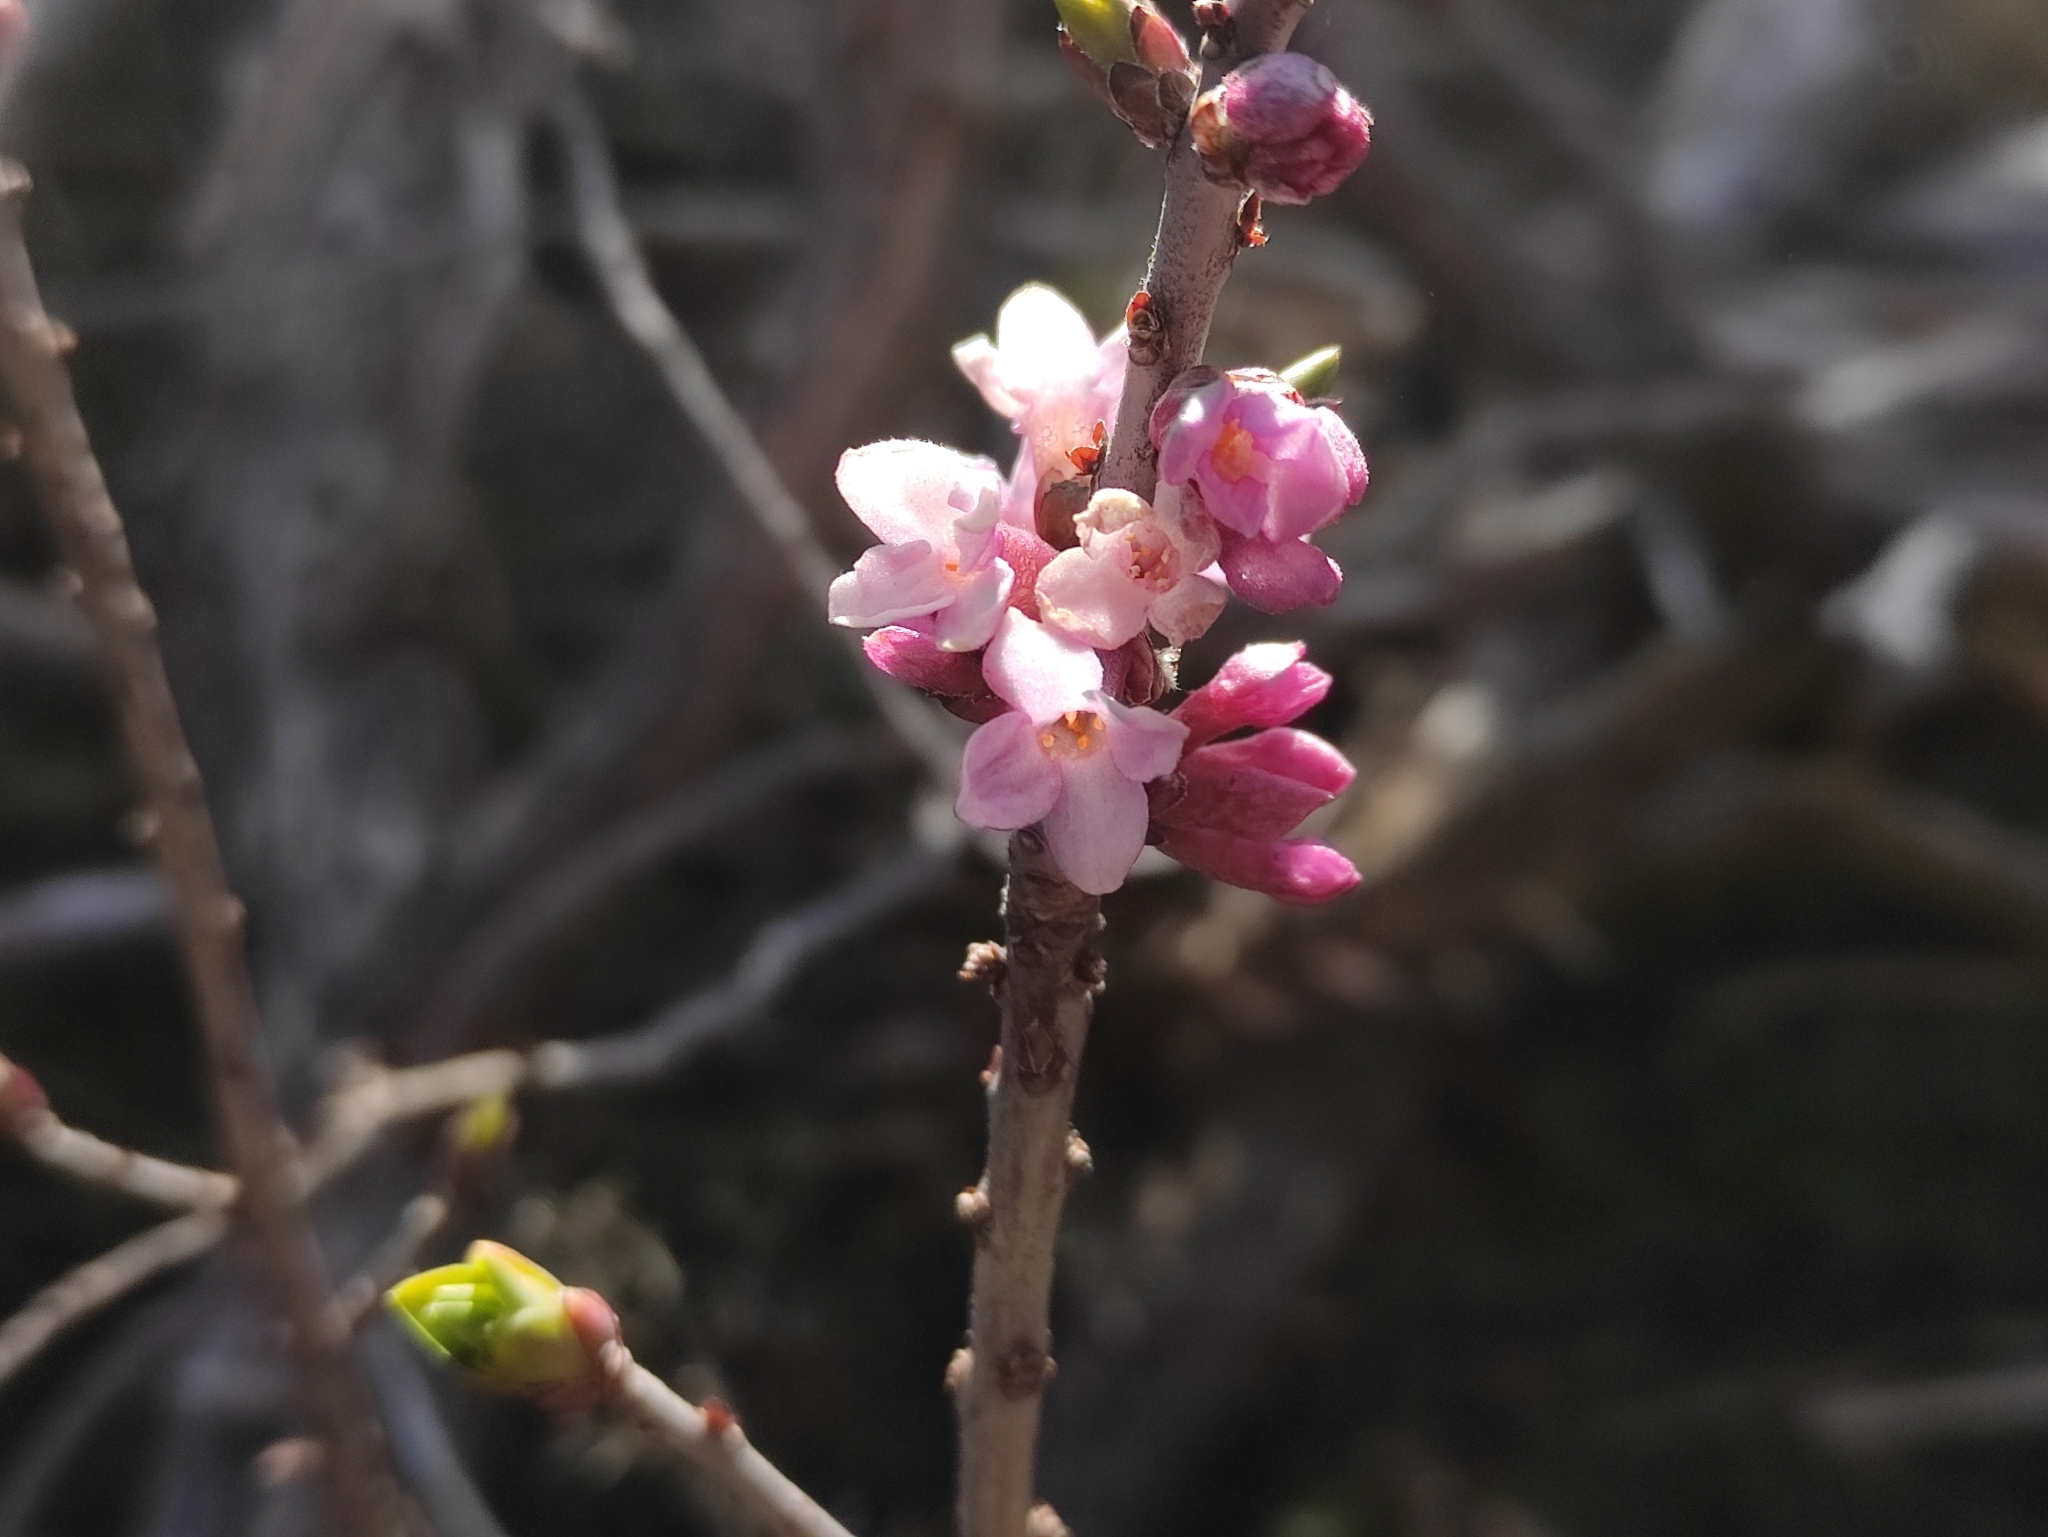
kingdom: Plantae
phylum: Tracheophyta
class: Magnoliopsida
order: Malvales
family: Thymelaeaceae
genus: Daphne
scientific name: Daphne mezereum
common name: Mezereon
